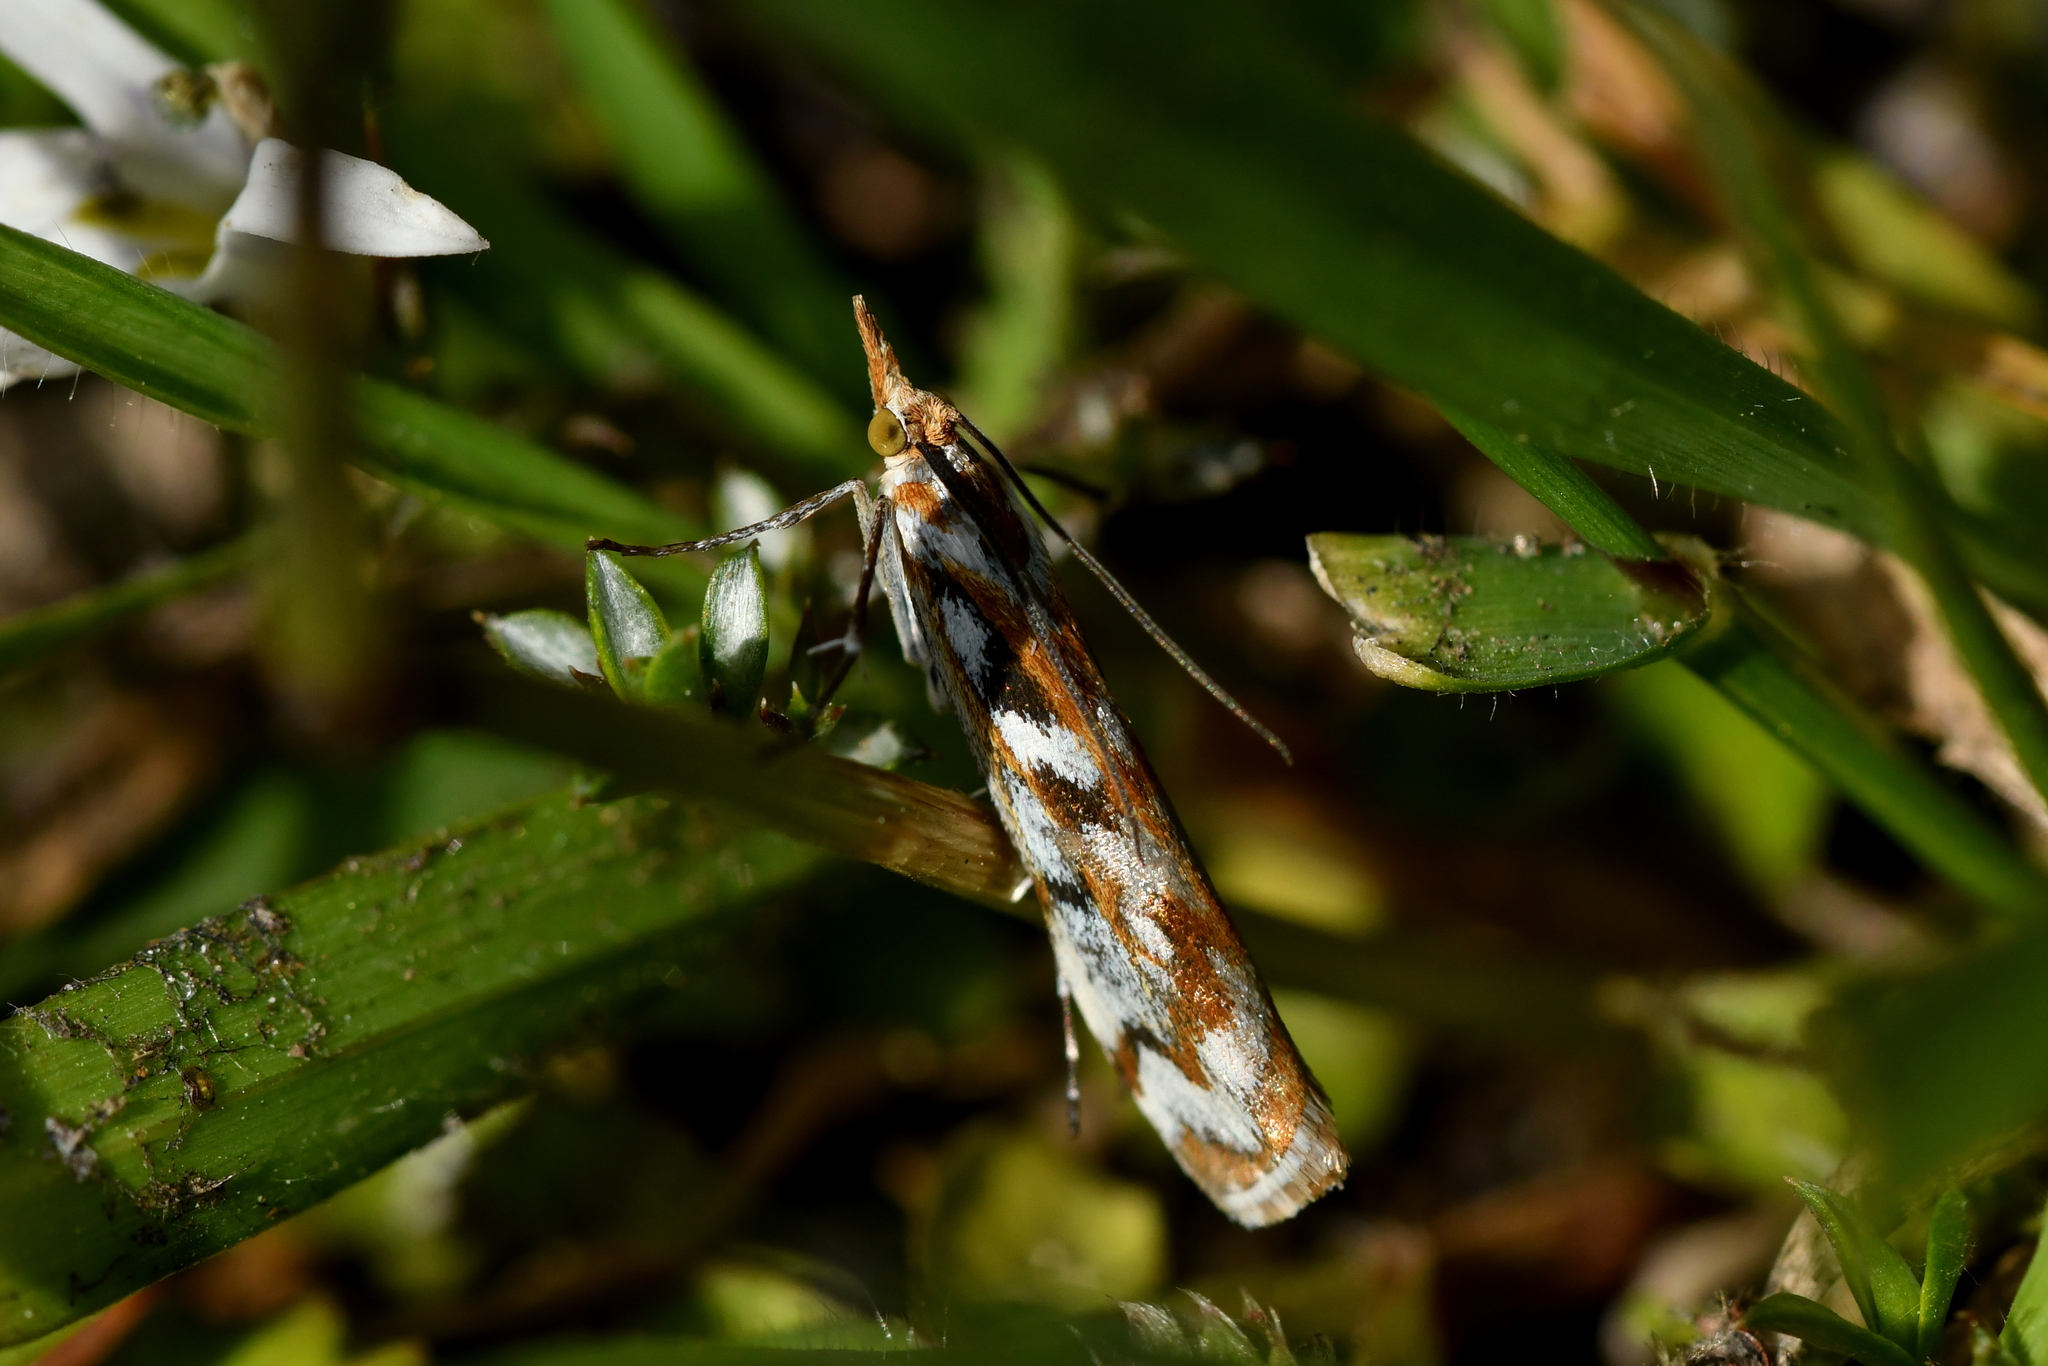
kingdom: Animalia
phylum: Arthropoda
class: Insecta
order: Lepidoptera
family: Crambidae
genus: Orocrambus
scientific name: Orocrambus xanthogrammus
